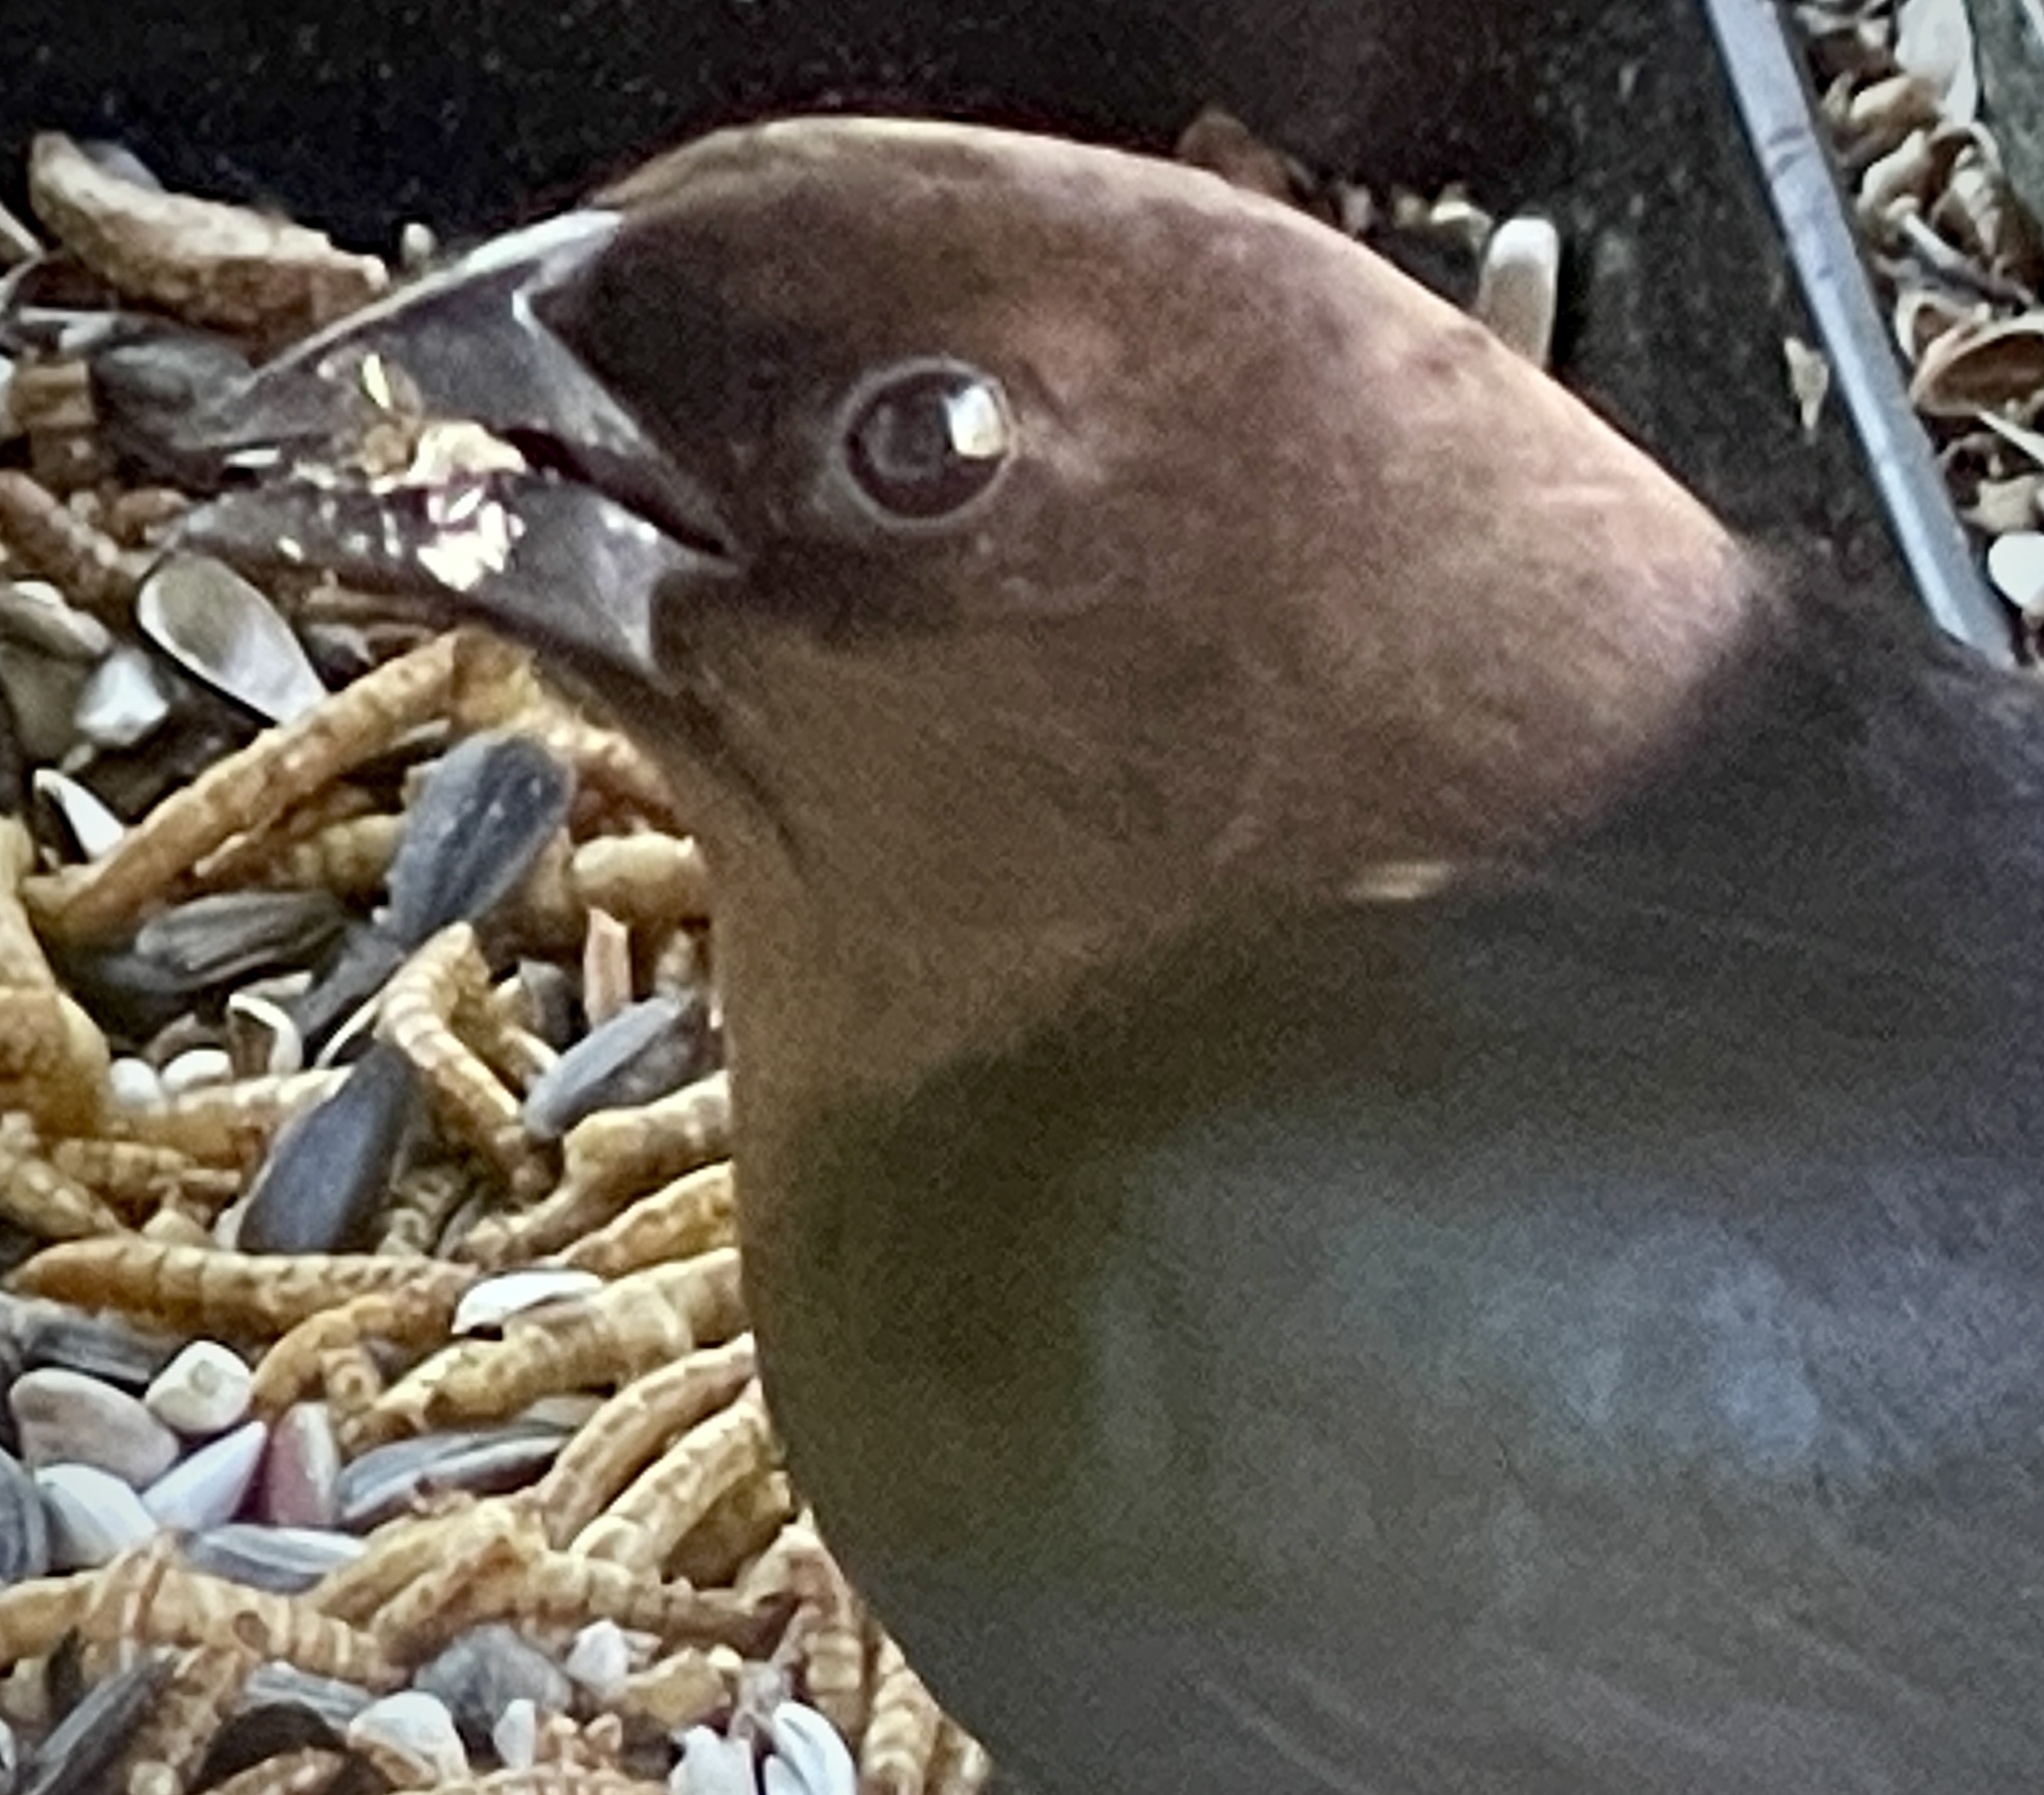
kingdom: Animalia
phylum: Chordata
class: Aves
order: Passeriformes
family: Icteridae
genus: Molothrus
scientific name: Molothrus ater
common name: Brown-headed cowbird
